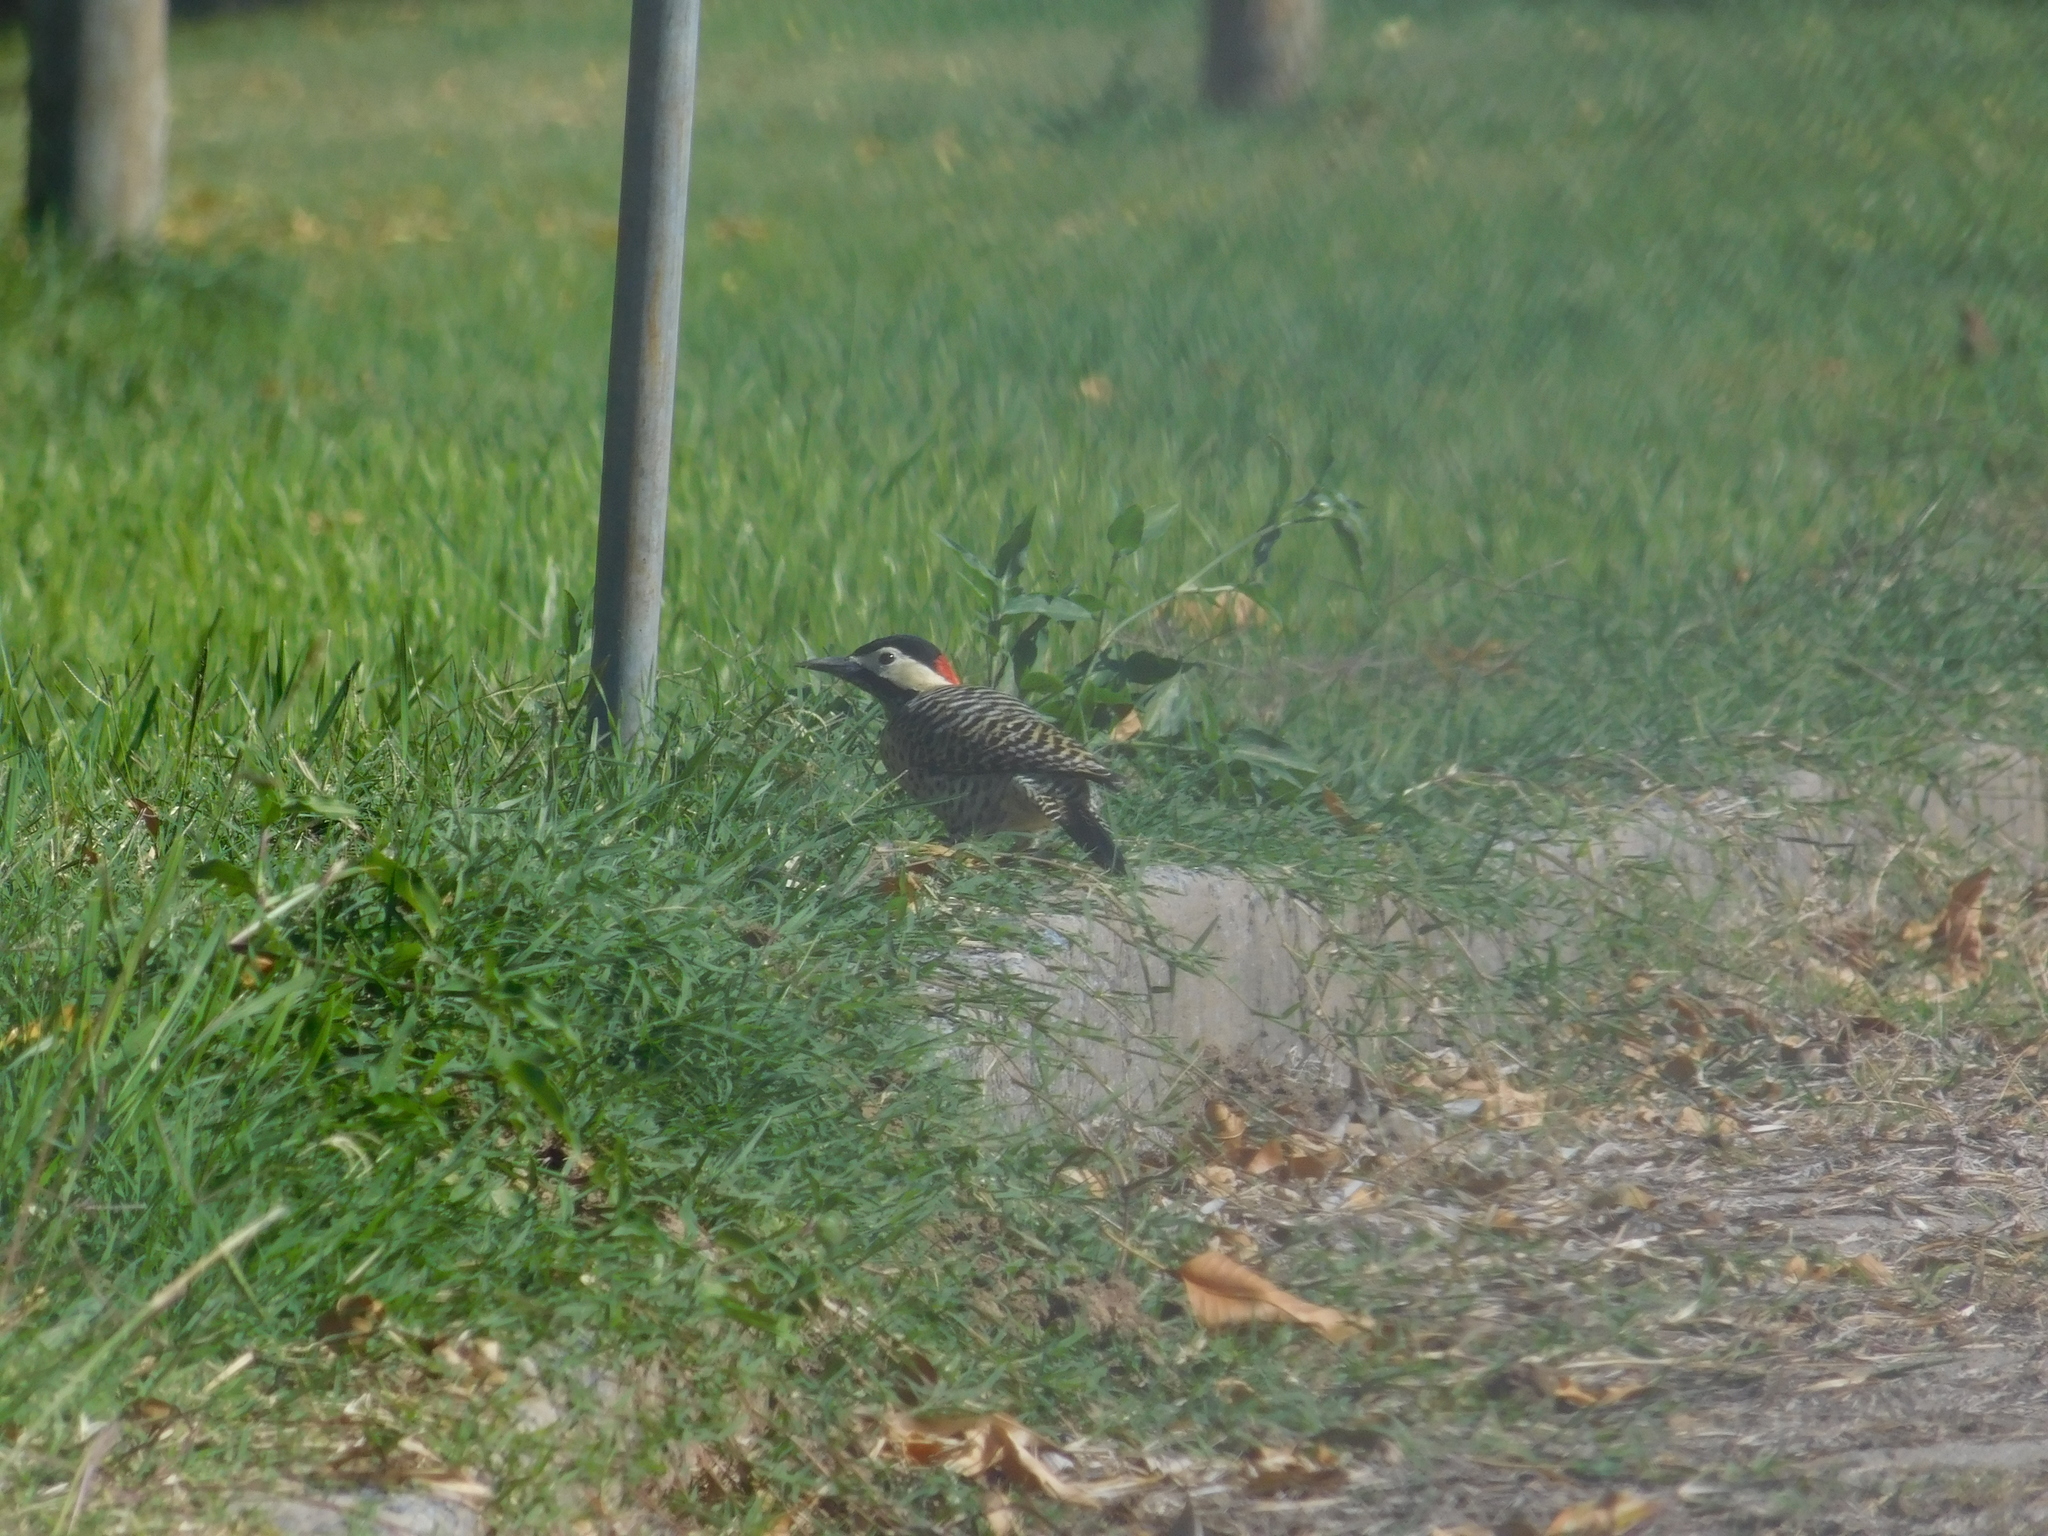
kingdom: Animalia
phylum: Chordata
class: Aves
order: Piciformes
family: Picidae
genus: Colaptes
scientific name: Colaptes melanochloros
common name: Green-barred woodpecker
